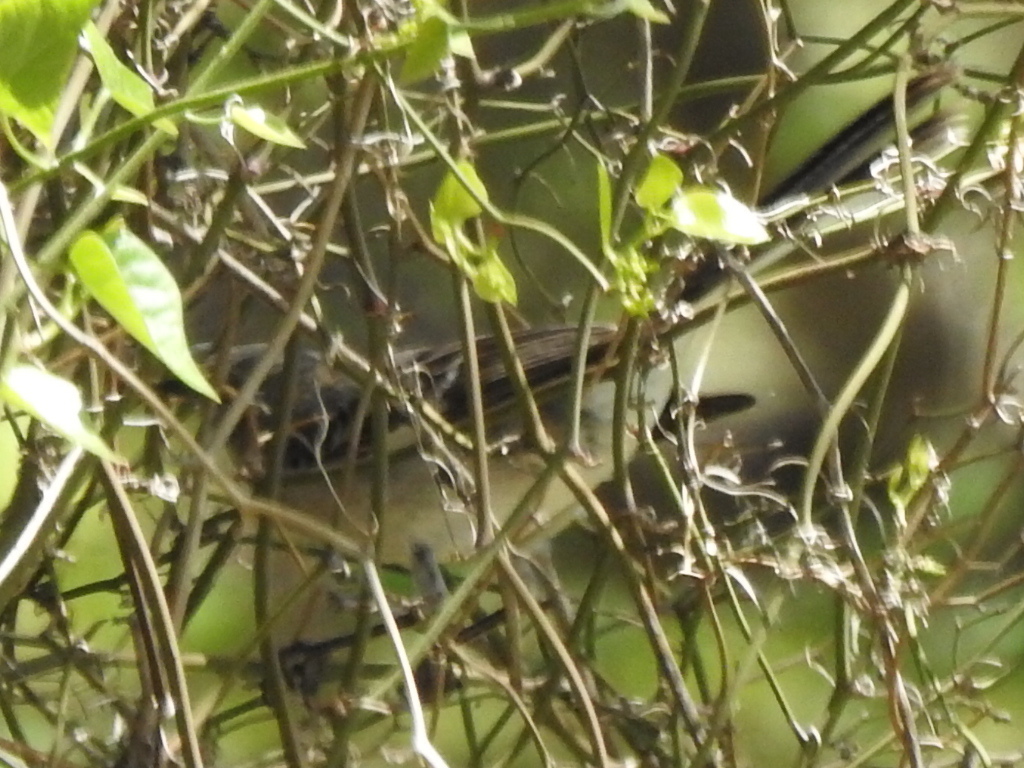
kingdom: Animalia
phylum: Chordata
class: Aves
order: Passeriformes
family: Mimidae
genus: Mimus
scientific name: Mimus polyglottos
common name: Northern mockingbird
